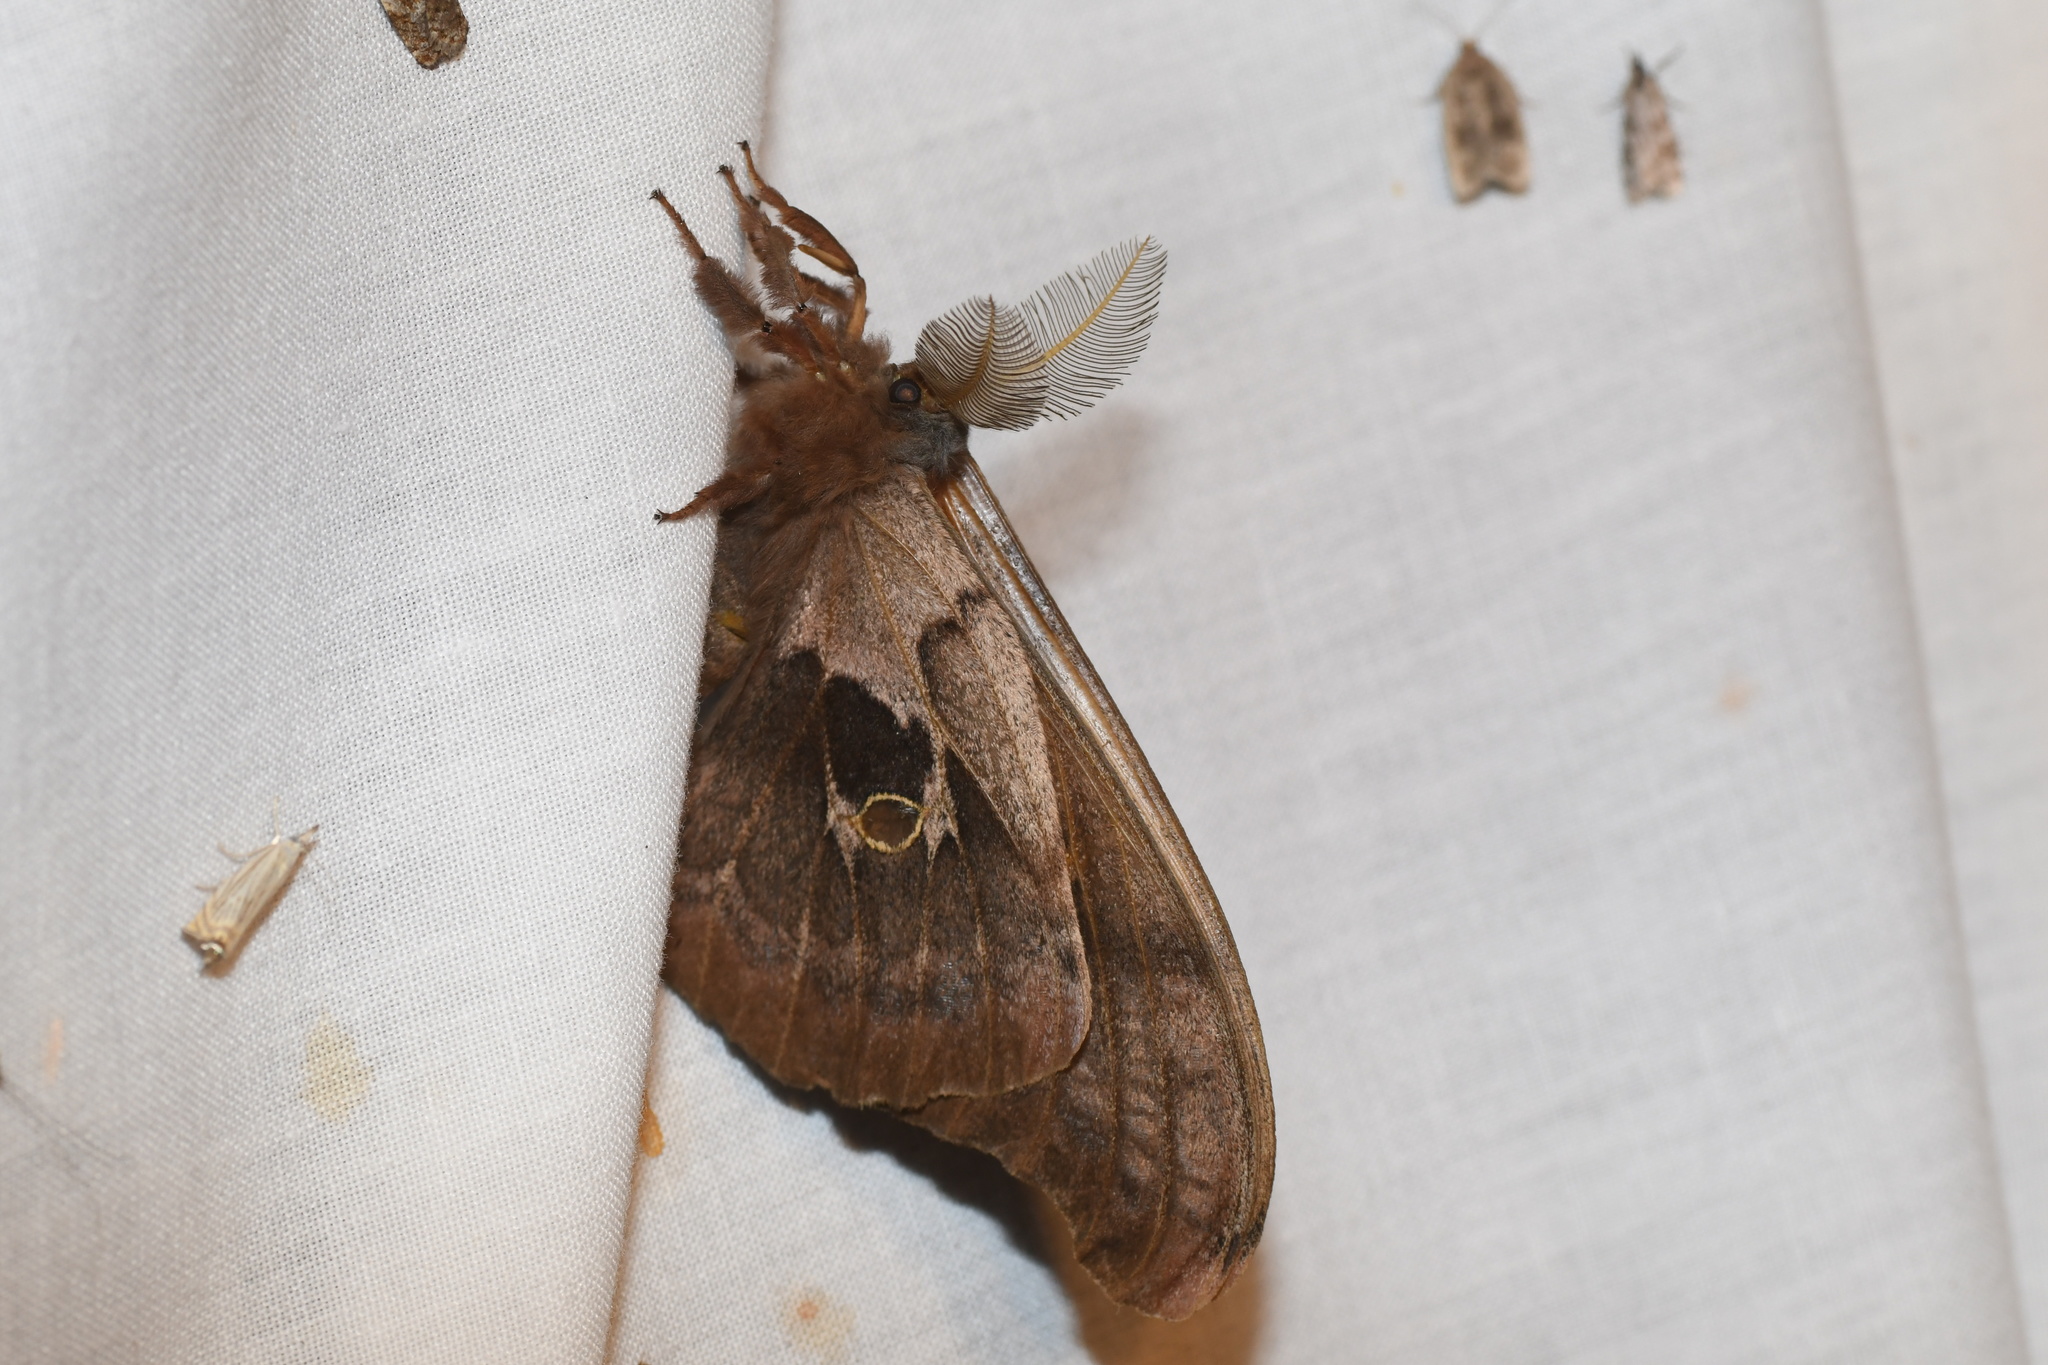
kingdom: Animalia
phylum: Arthropoda
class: Insecta
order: Lepidoptera
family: Saturniidae
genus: Antheraea
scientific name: Antheraea polyphemus
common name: Polyphemus moth
